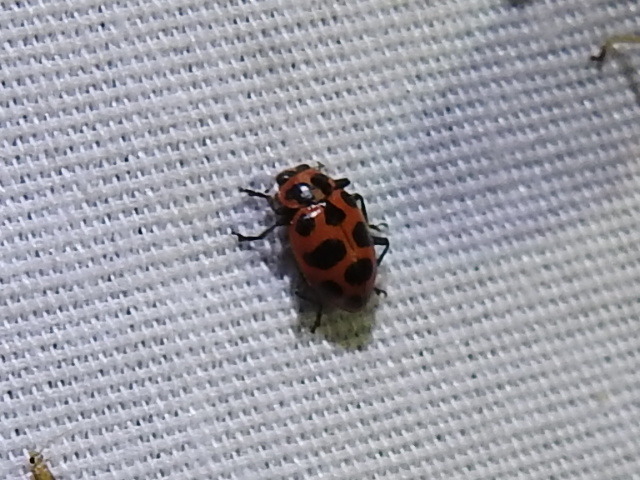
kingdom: Animalia
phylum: Arthropoda
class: Insecta
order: Coleoptera
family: Coccinellidae
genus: Coleomegilla
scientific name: Coleomegilla maculata
